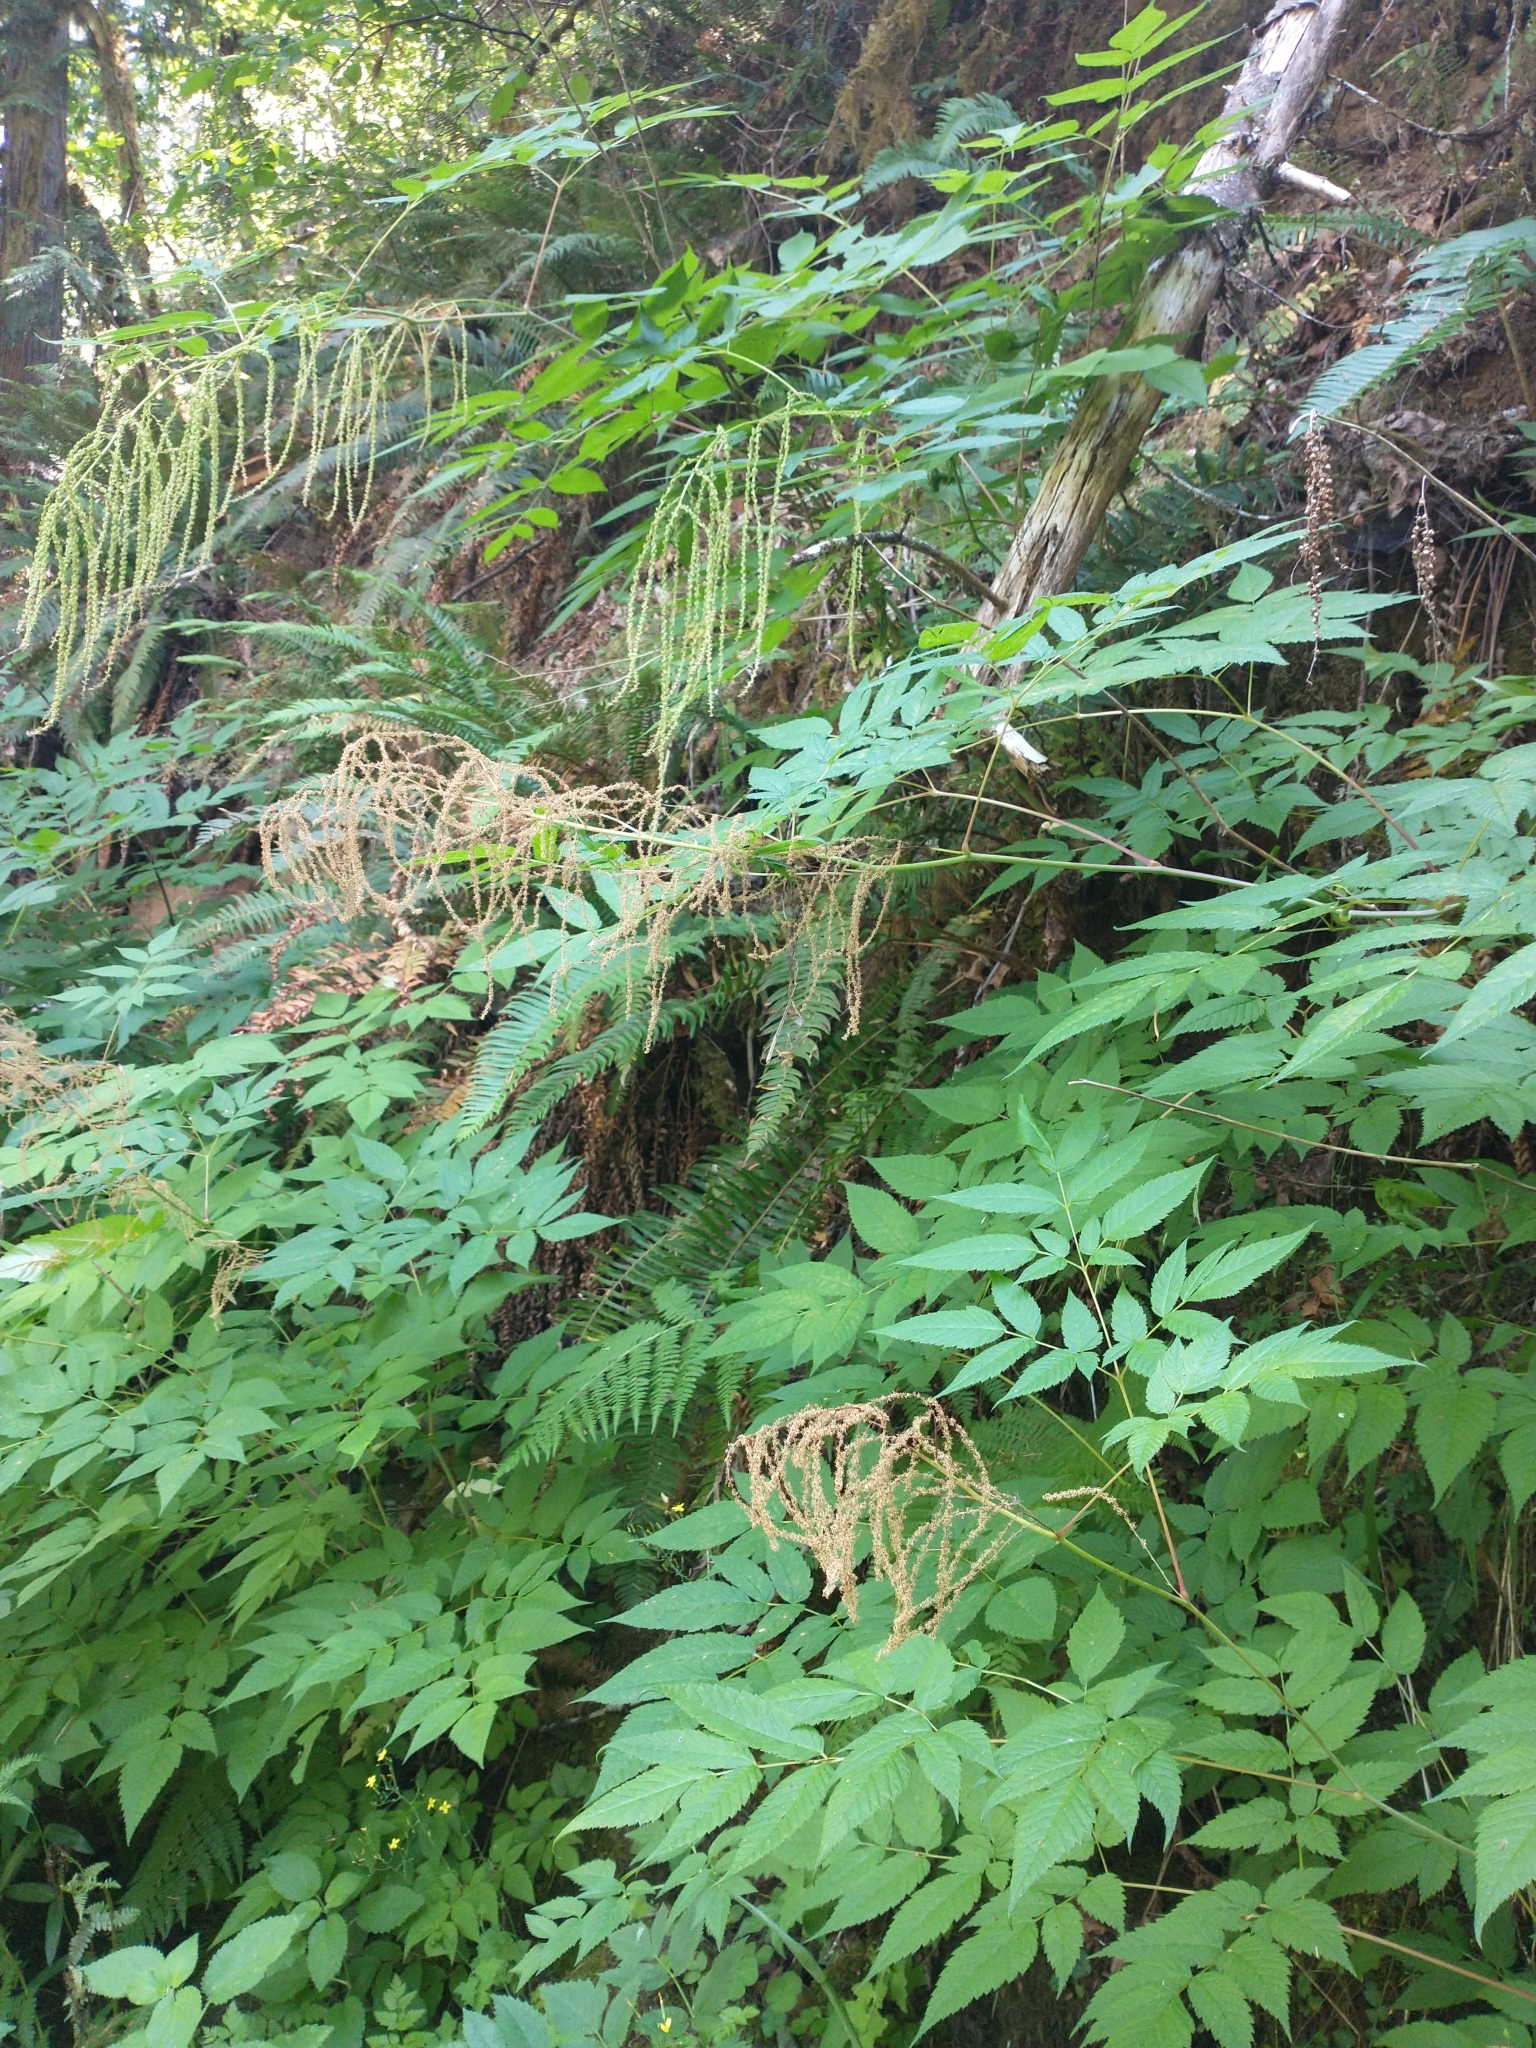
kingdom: Plantae
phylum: Tracheophyta
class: Magnoliopsida
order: Rosales
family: Rosaceae
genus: Aruncus
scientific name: Aruncus dioicus
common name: Buck's-beard
